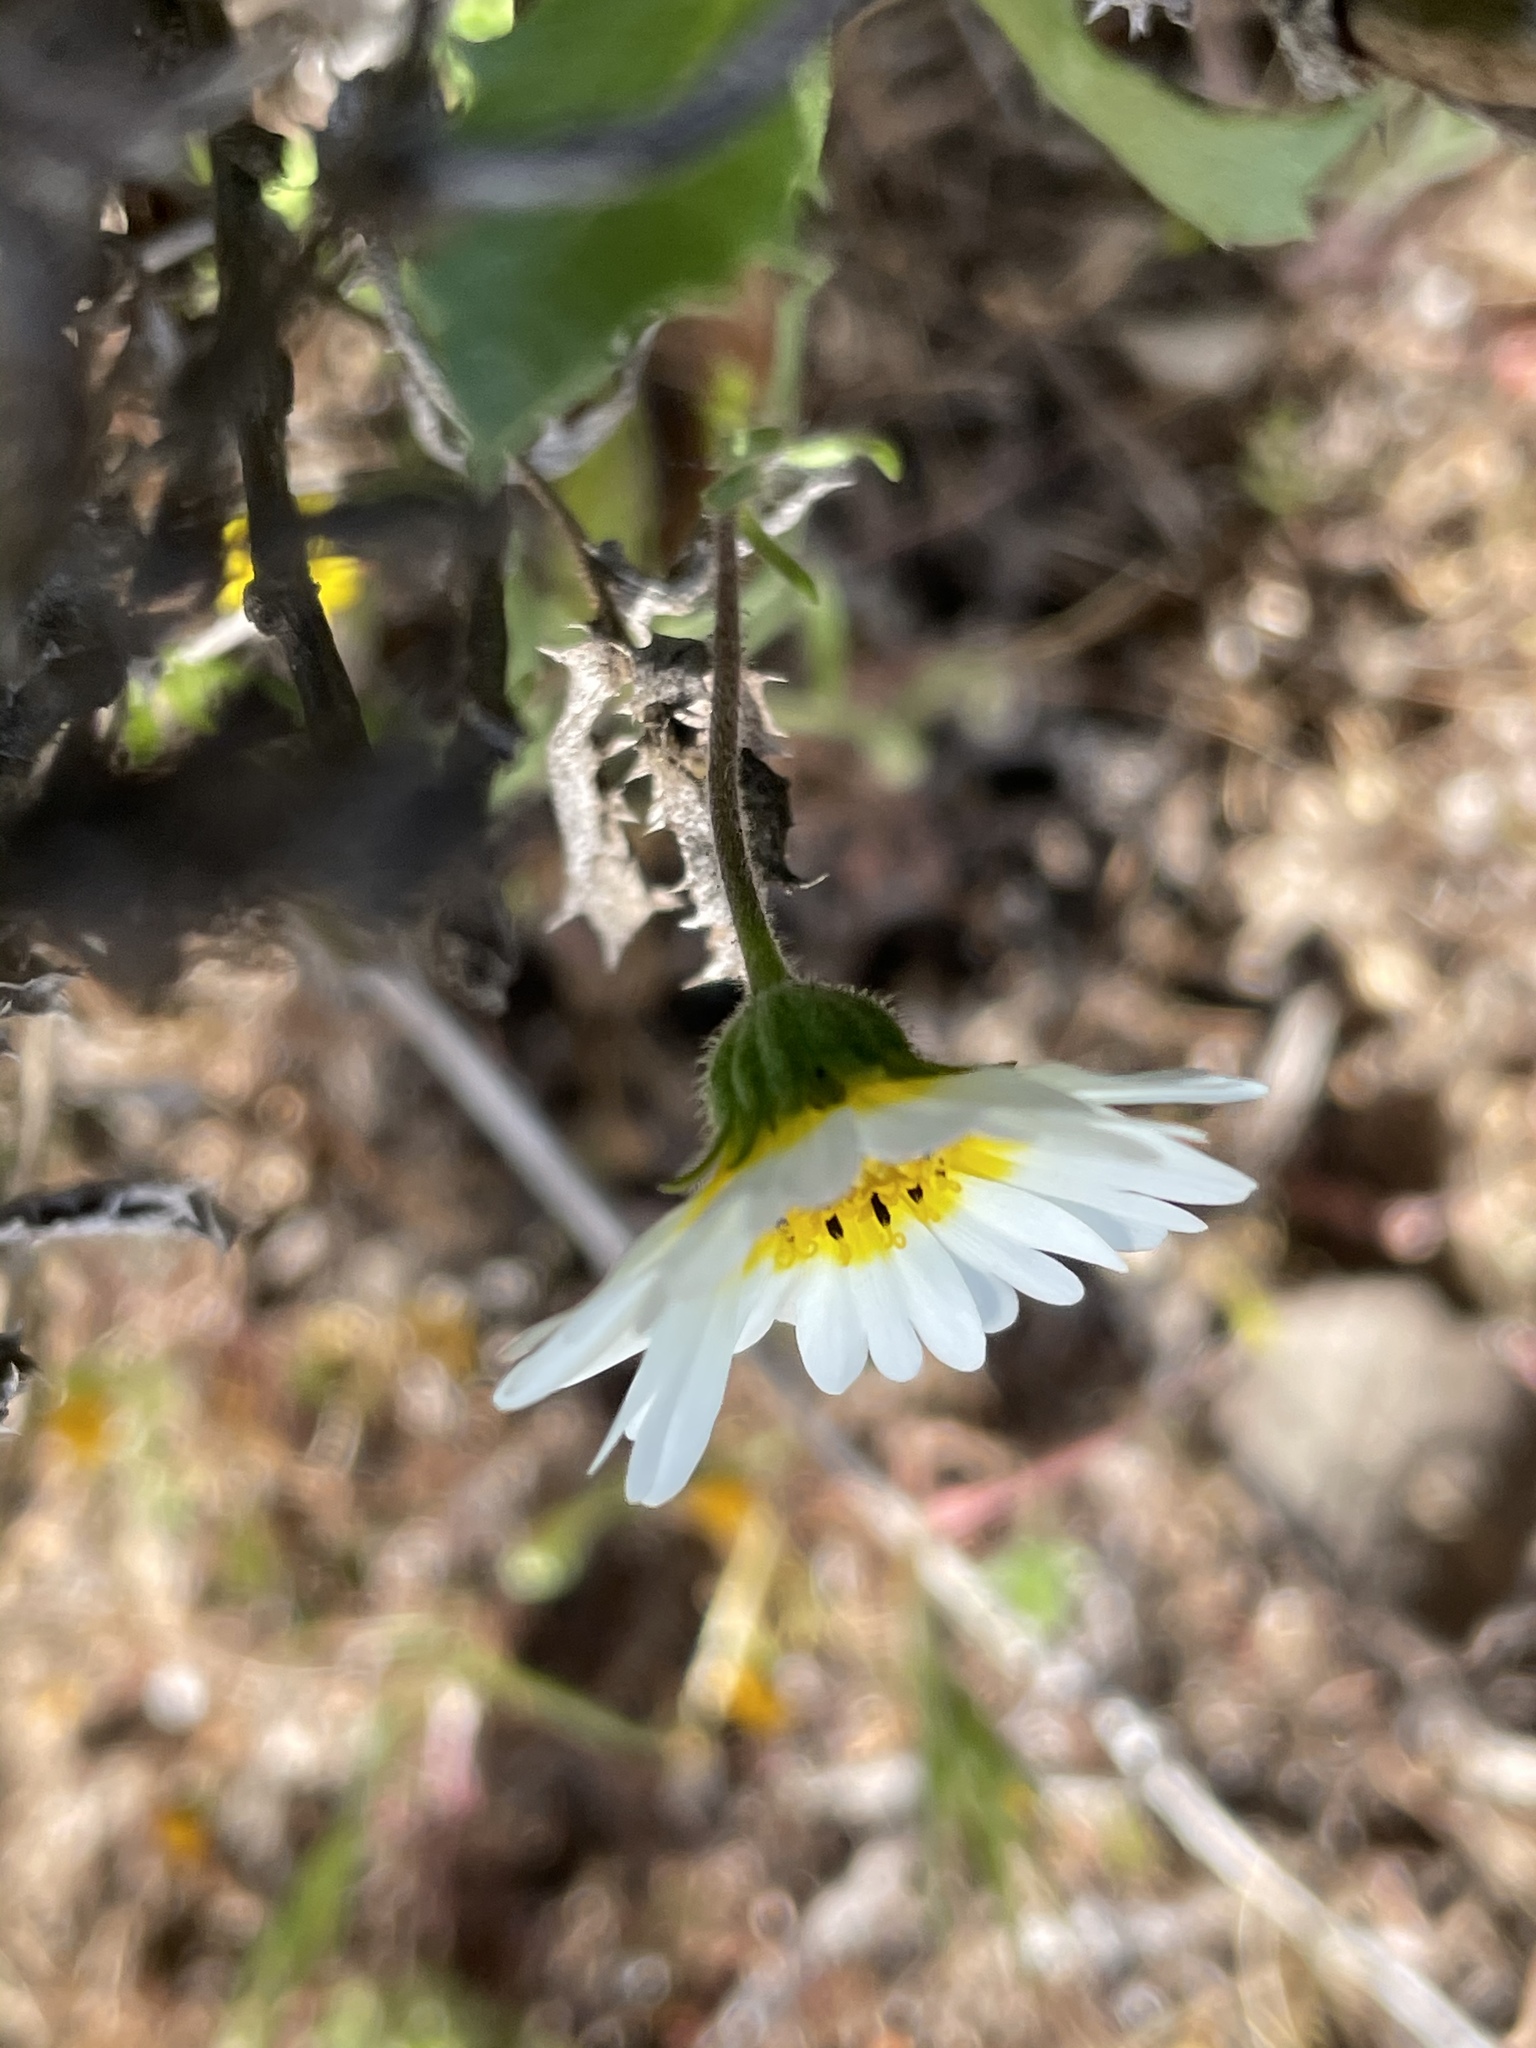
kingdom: Plantae
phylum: Tracheophyta
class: Magnoliopsida
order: Asterales
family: Asteraceae
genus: Layia
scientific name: Layia platyglossa
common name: Tidy-tips
